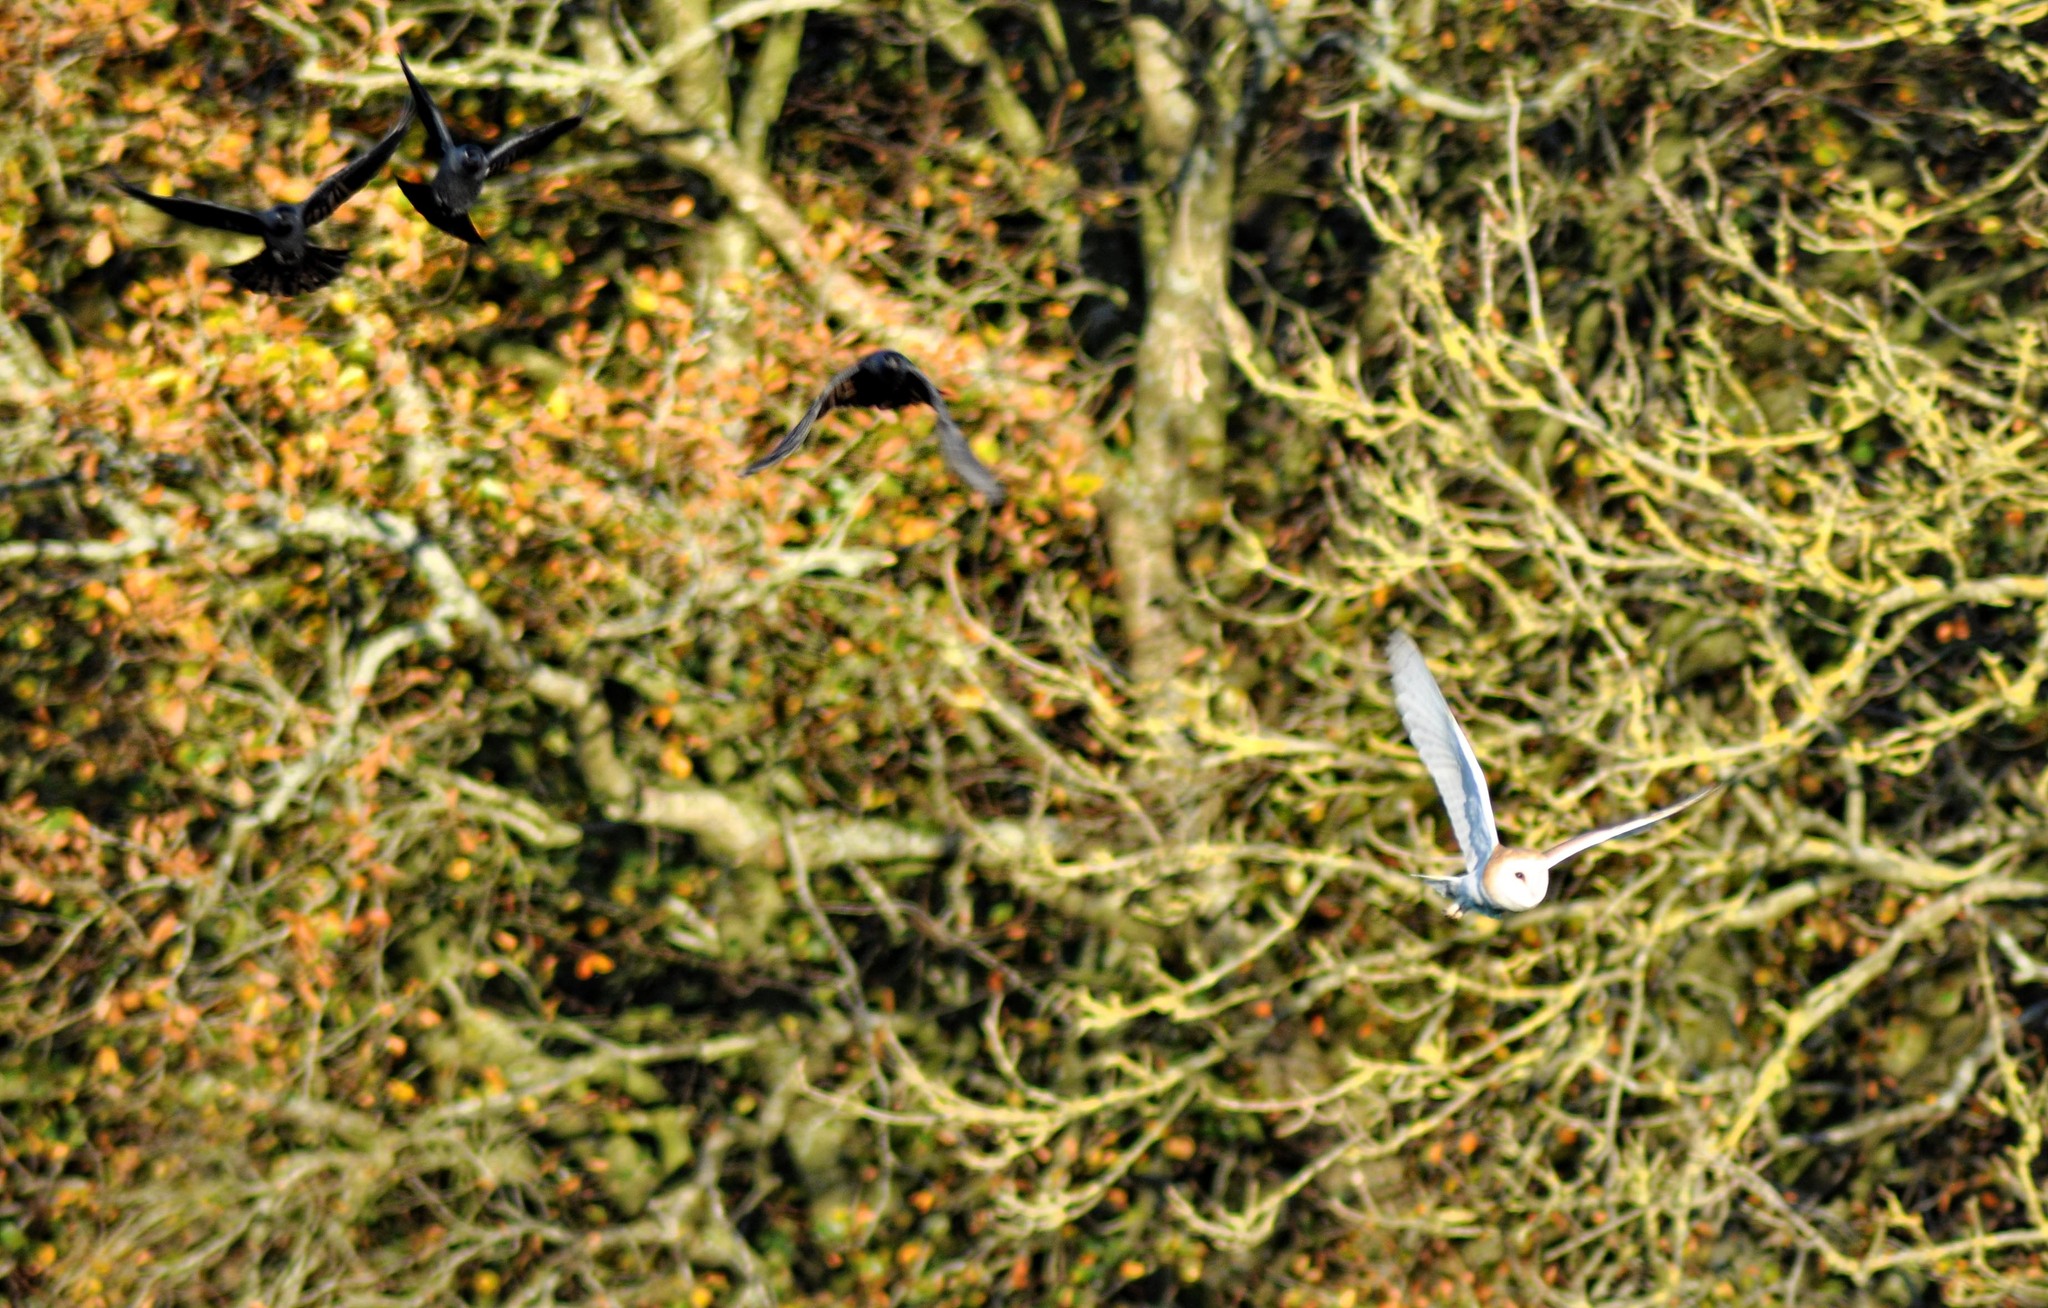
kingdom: Animalia
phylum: Chordata
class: Aves
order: Strigiformes
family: Tytonidae
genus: Tyto
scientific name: Tyto alba
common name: Barn owl
